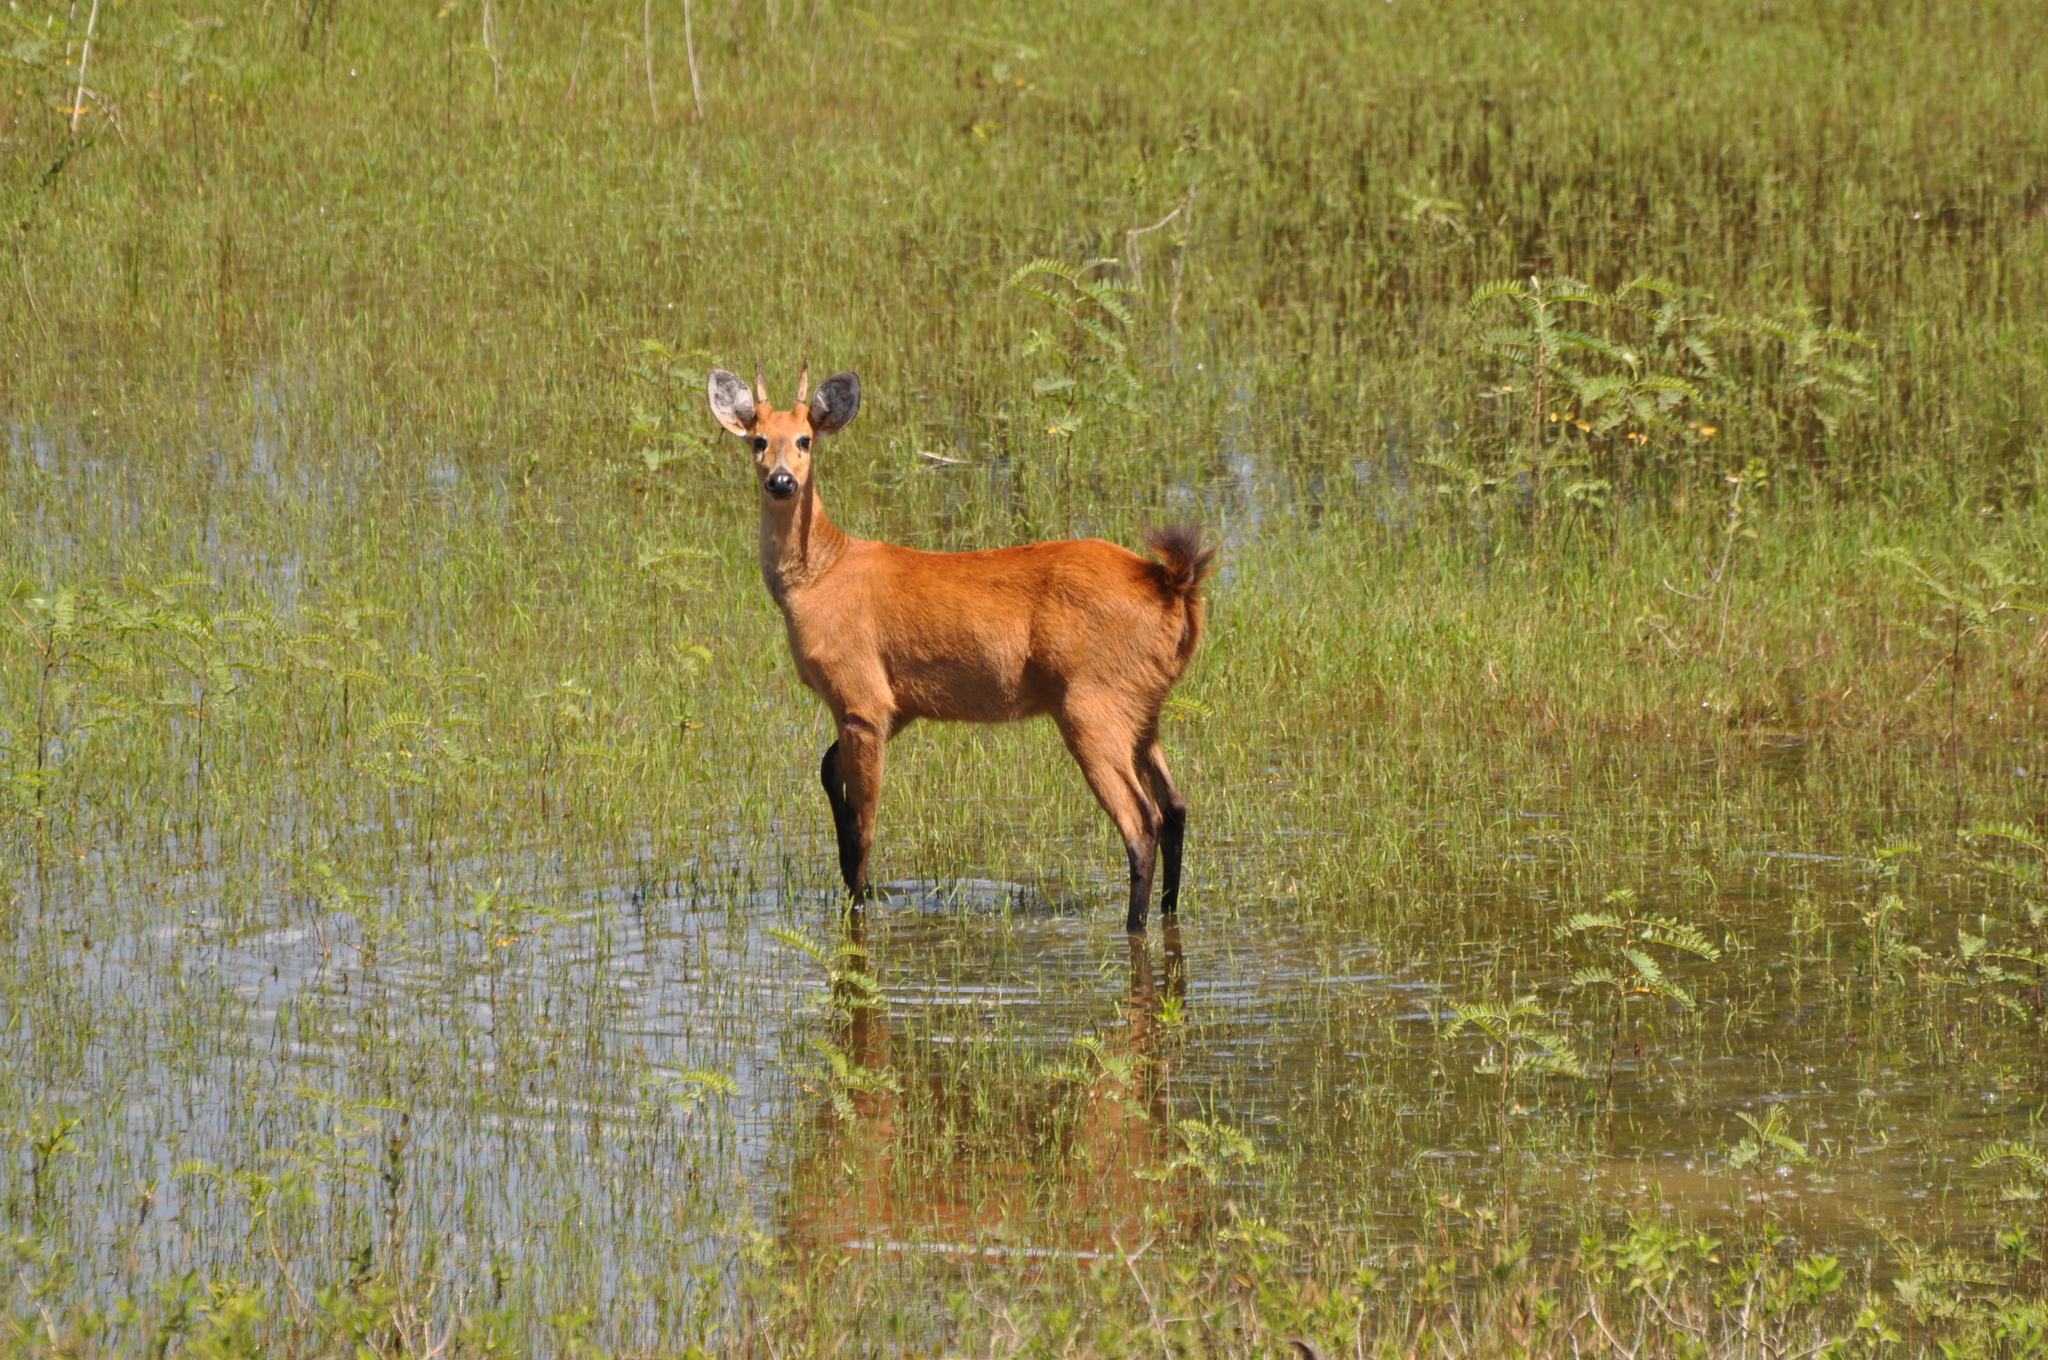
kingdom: Animalia
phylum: Chordata
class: Mammalia
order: Artiodactyla
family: Cervidae
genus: Blastocerus
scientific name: Blastocerus dichotomus
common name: Marsh deer
